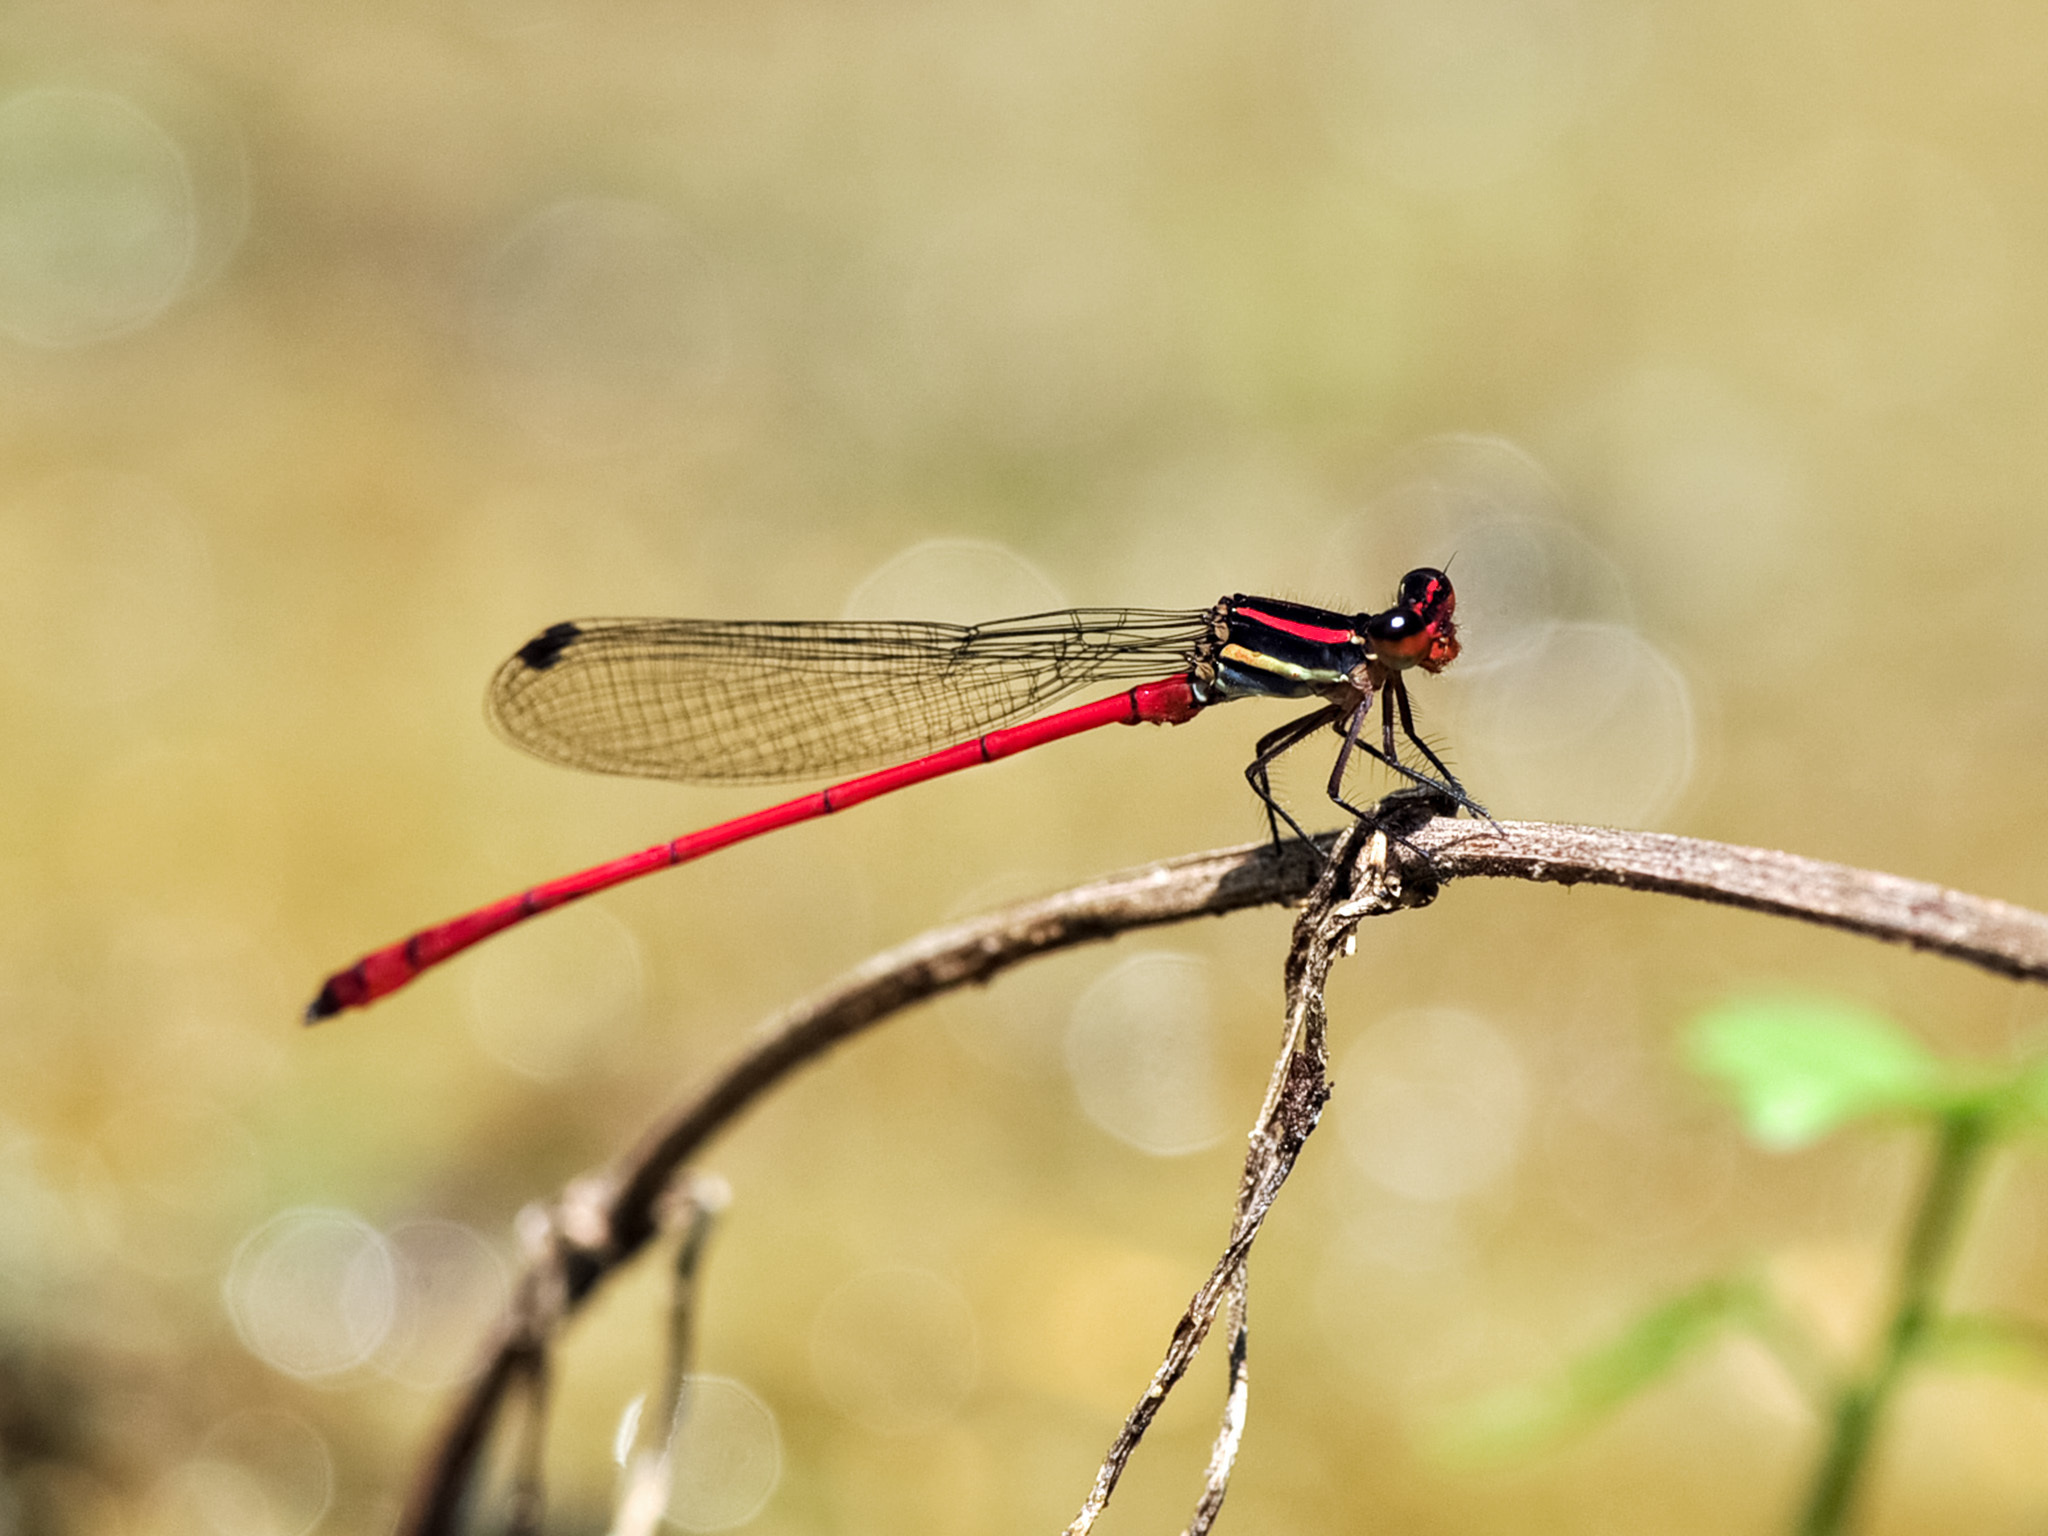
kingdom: Animalia
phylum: Arthropoda
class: Insecta
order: Odonata
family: Platycnemididae
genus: Calicnemia
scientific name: Calicnemia chaseni
